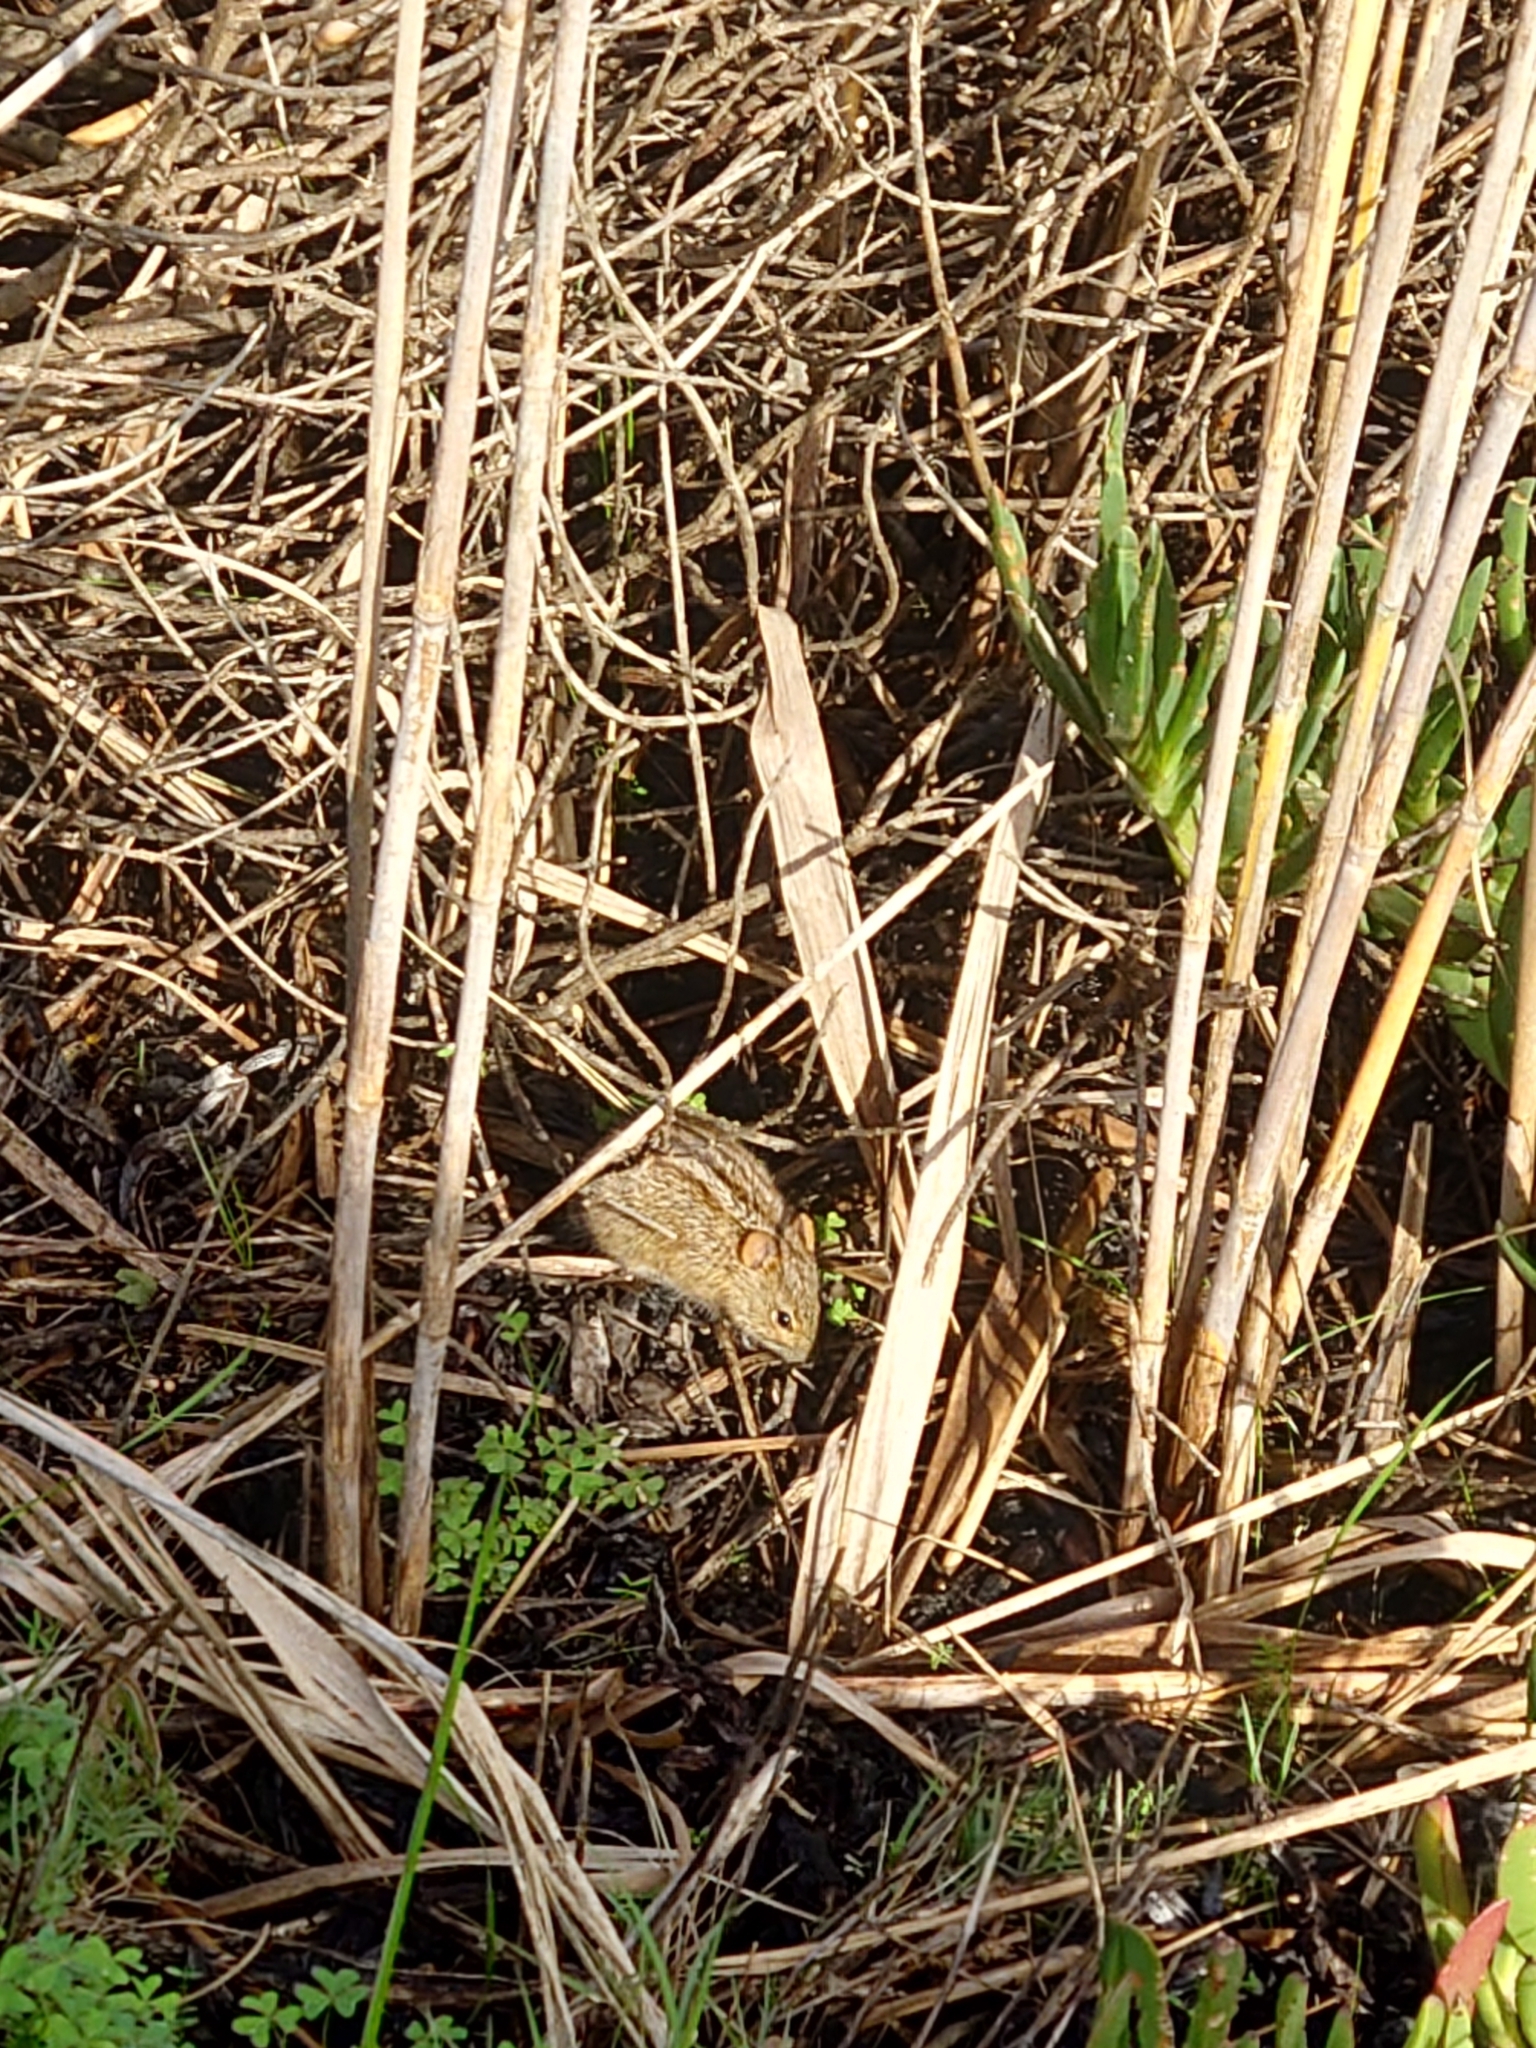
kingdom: Animalia
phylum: Chordata
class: Mammalia
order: Rodentia
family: Muridae
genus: Rhabdomys
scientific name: Rhabdomys pumilio
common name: Xeric four-striped grass rat
